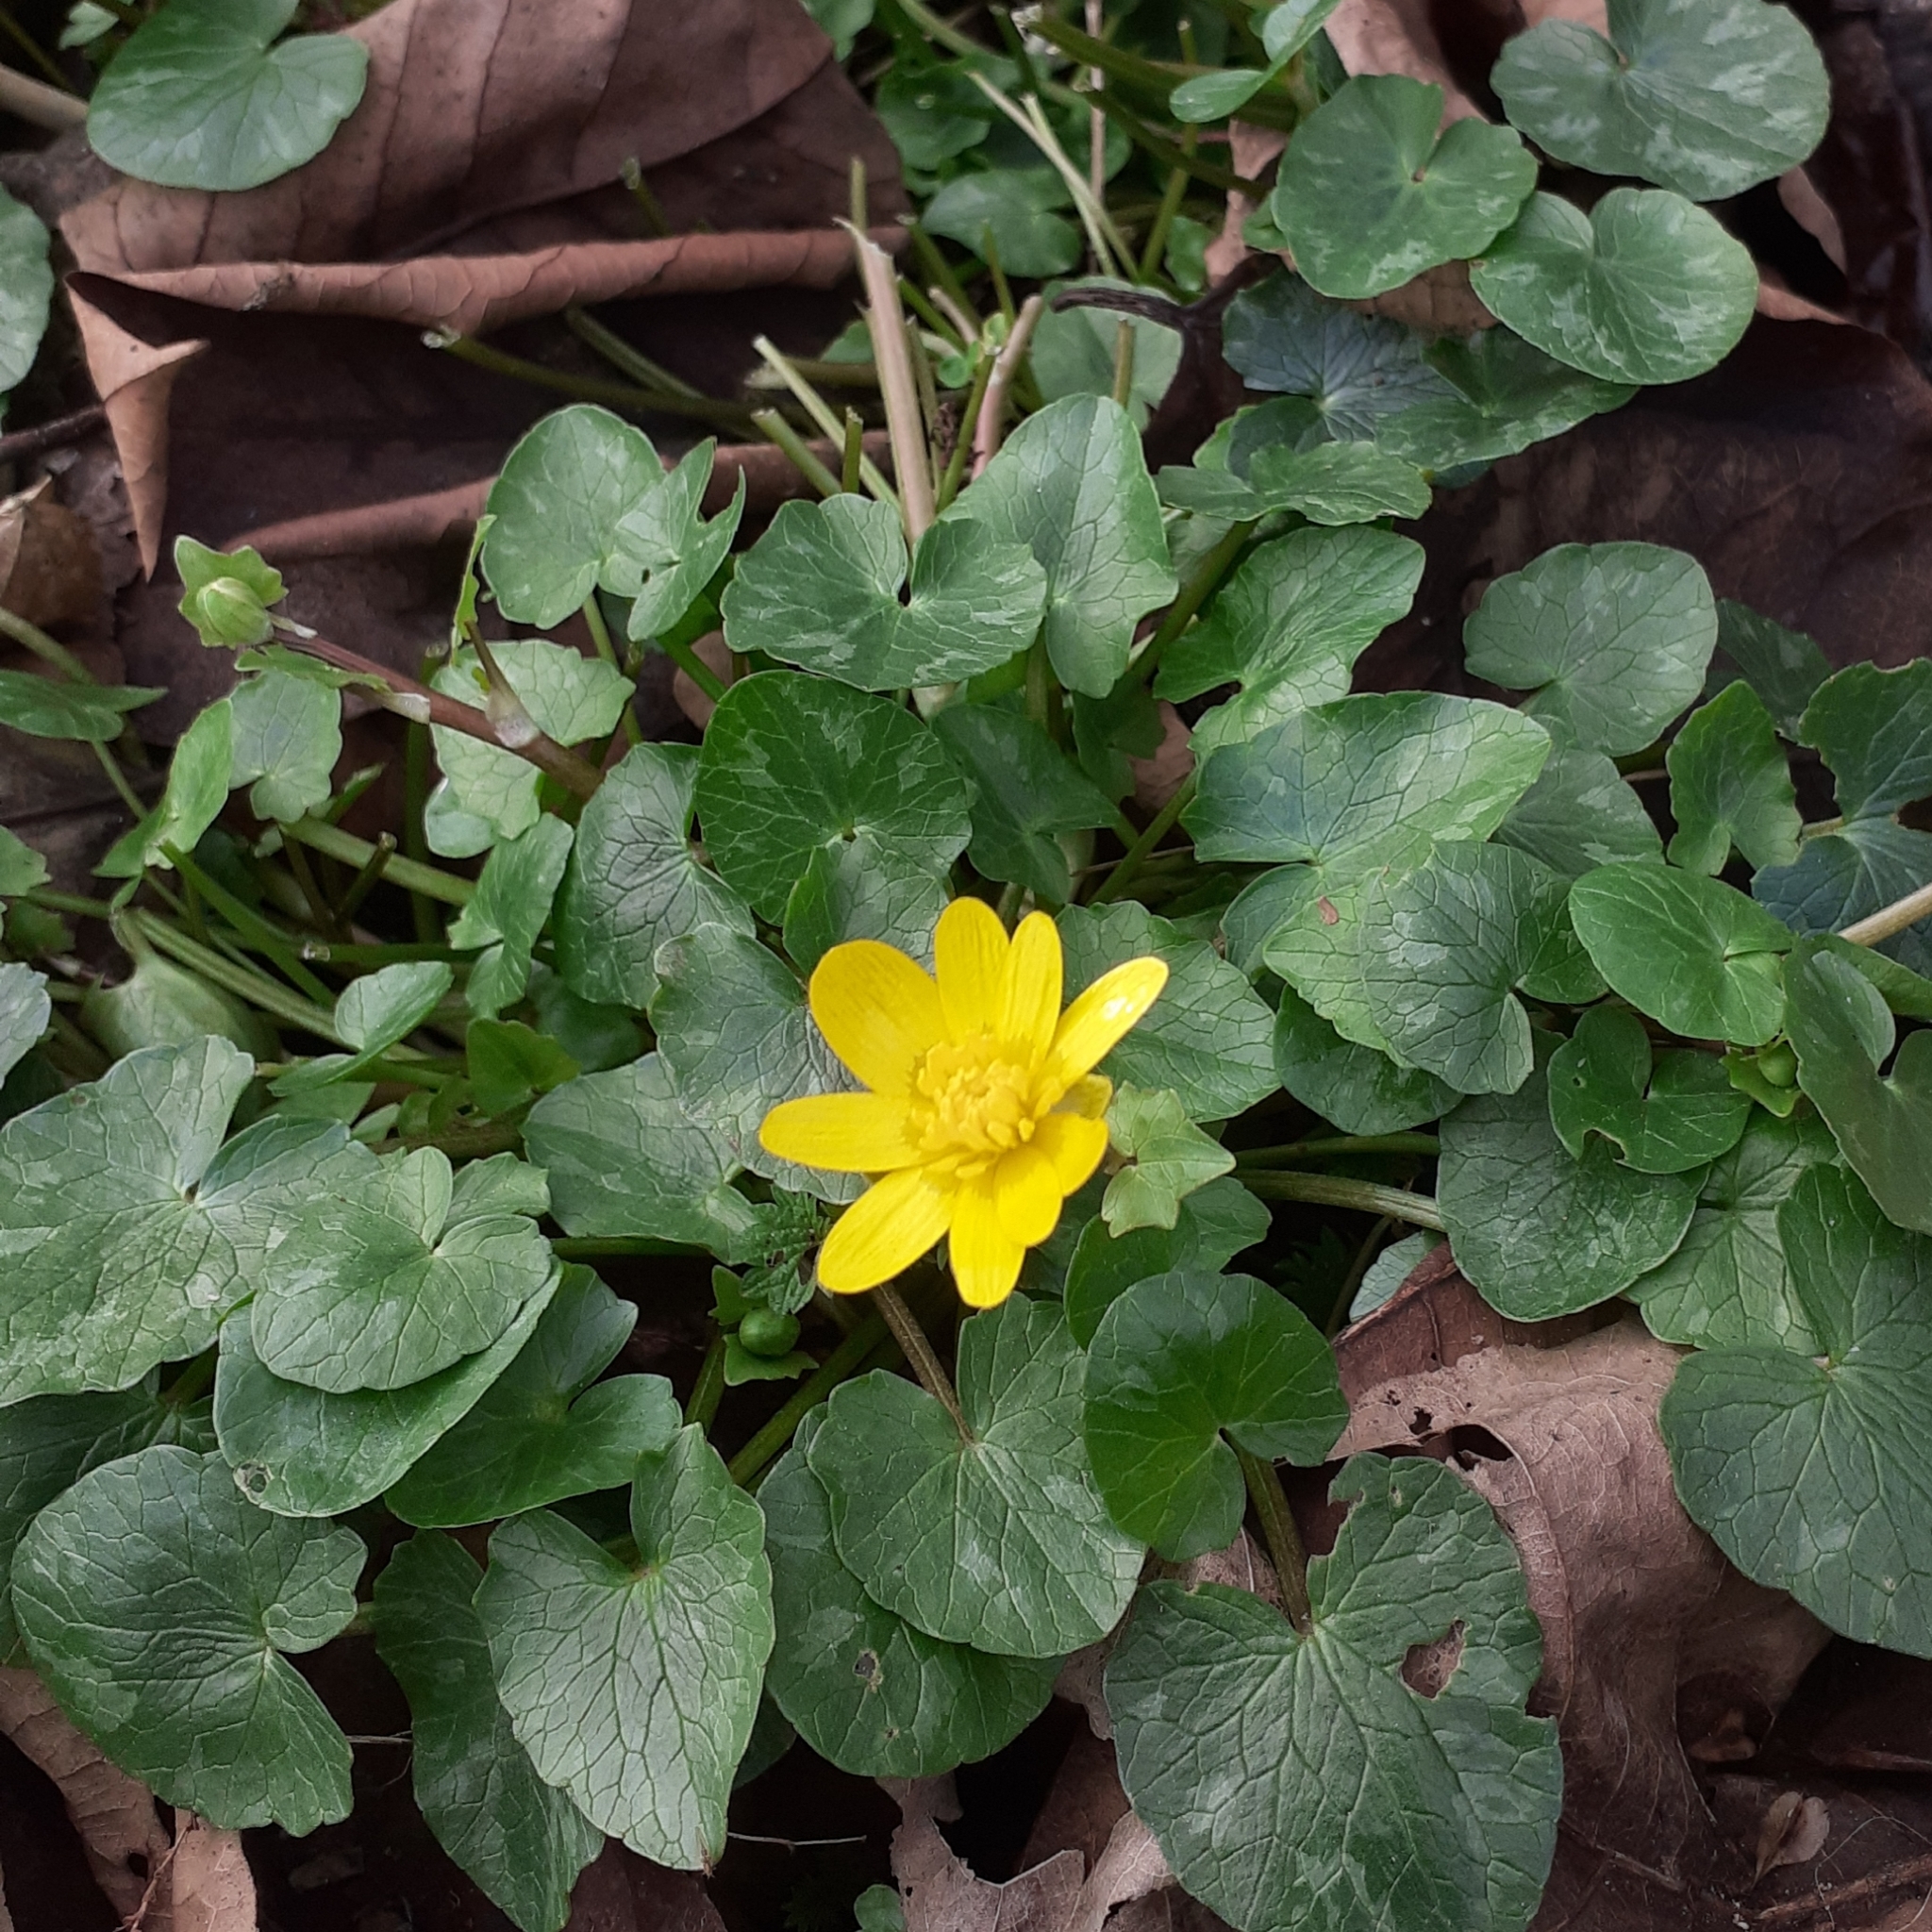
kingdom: Plantae
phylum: Tracheophyta
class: Magnoliopsida
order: Ranunculales
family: Ranunculaceae
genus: Ficaria
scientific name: Ficaria verna
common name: Lesser celandine
